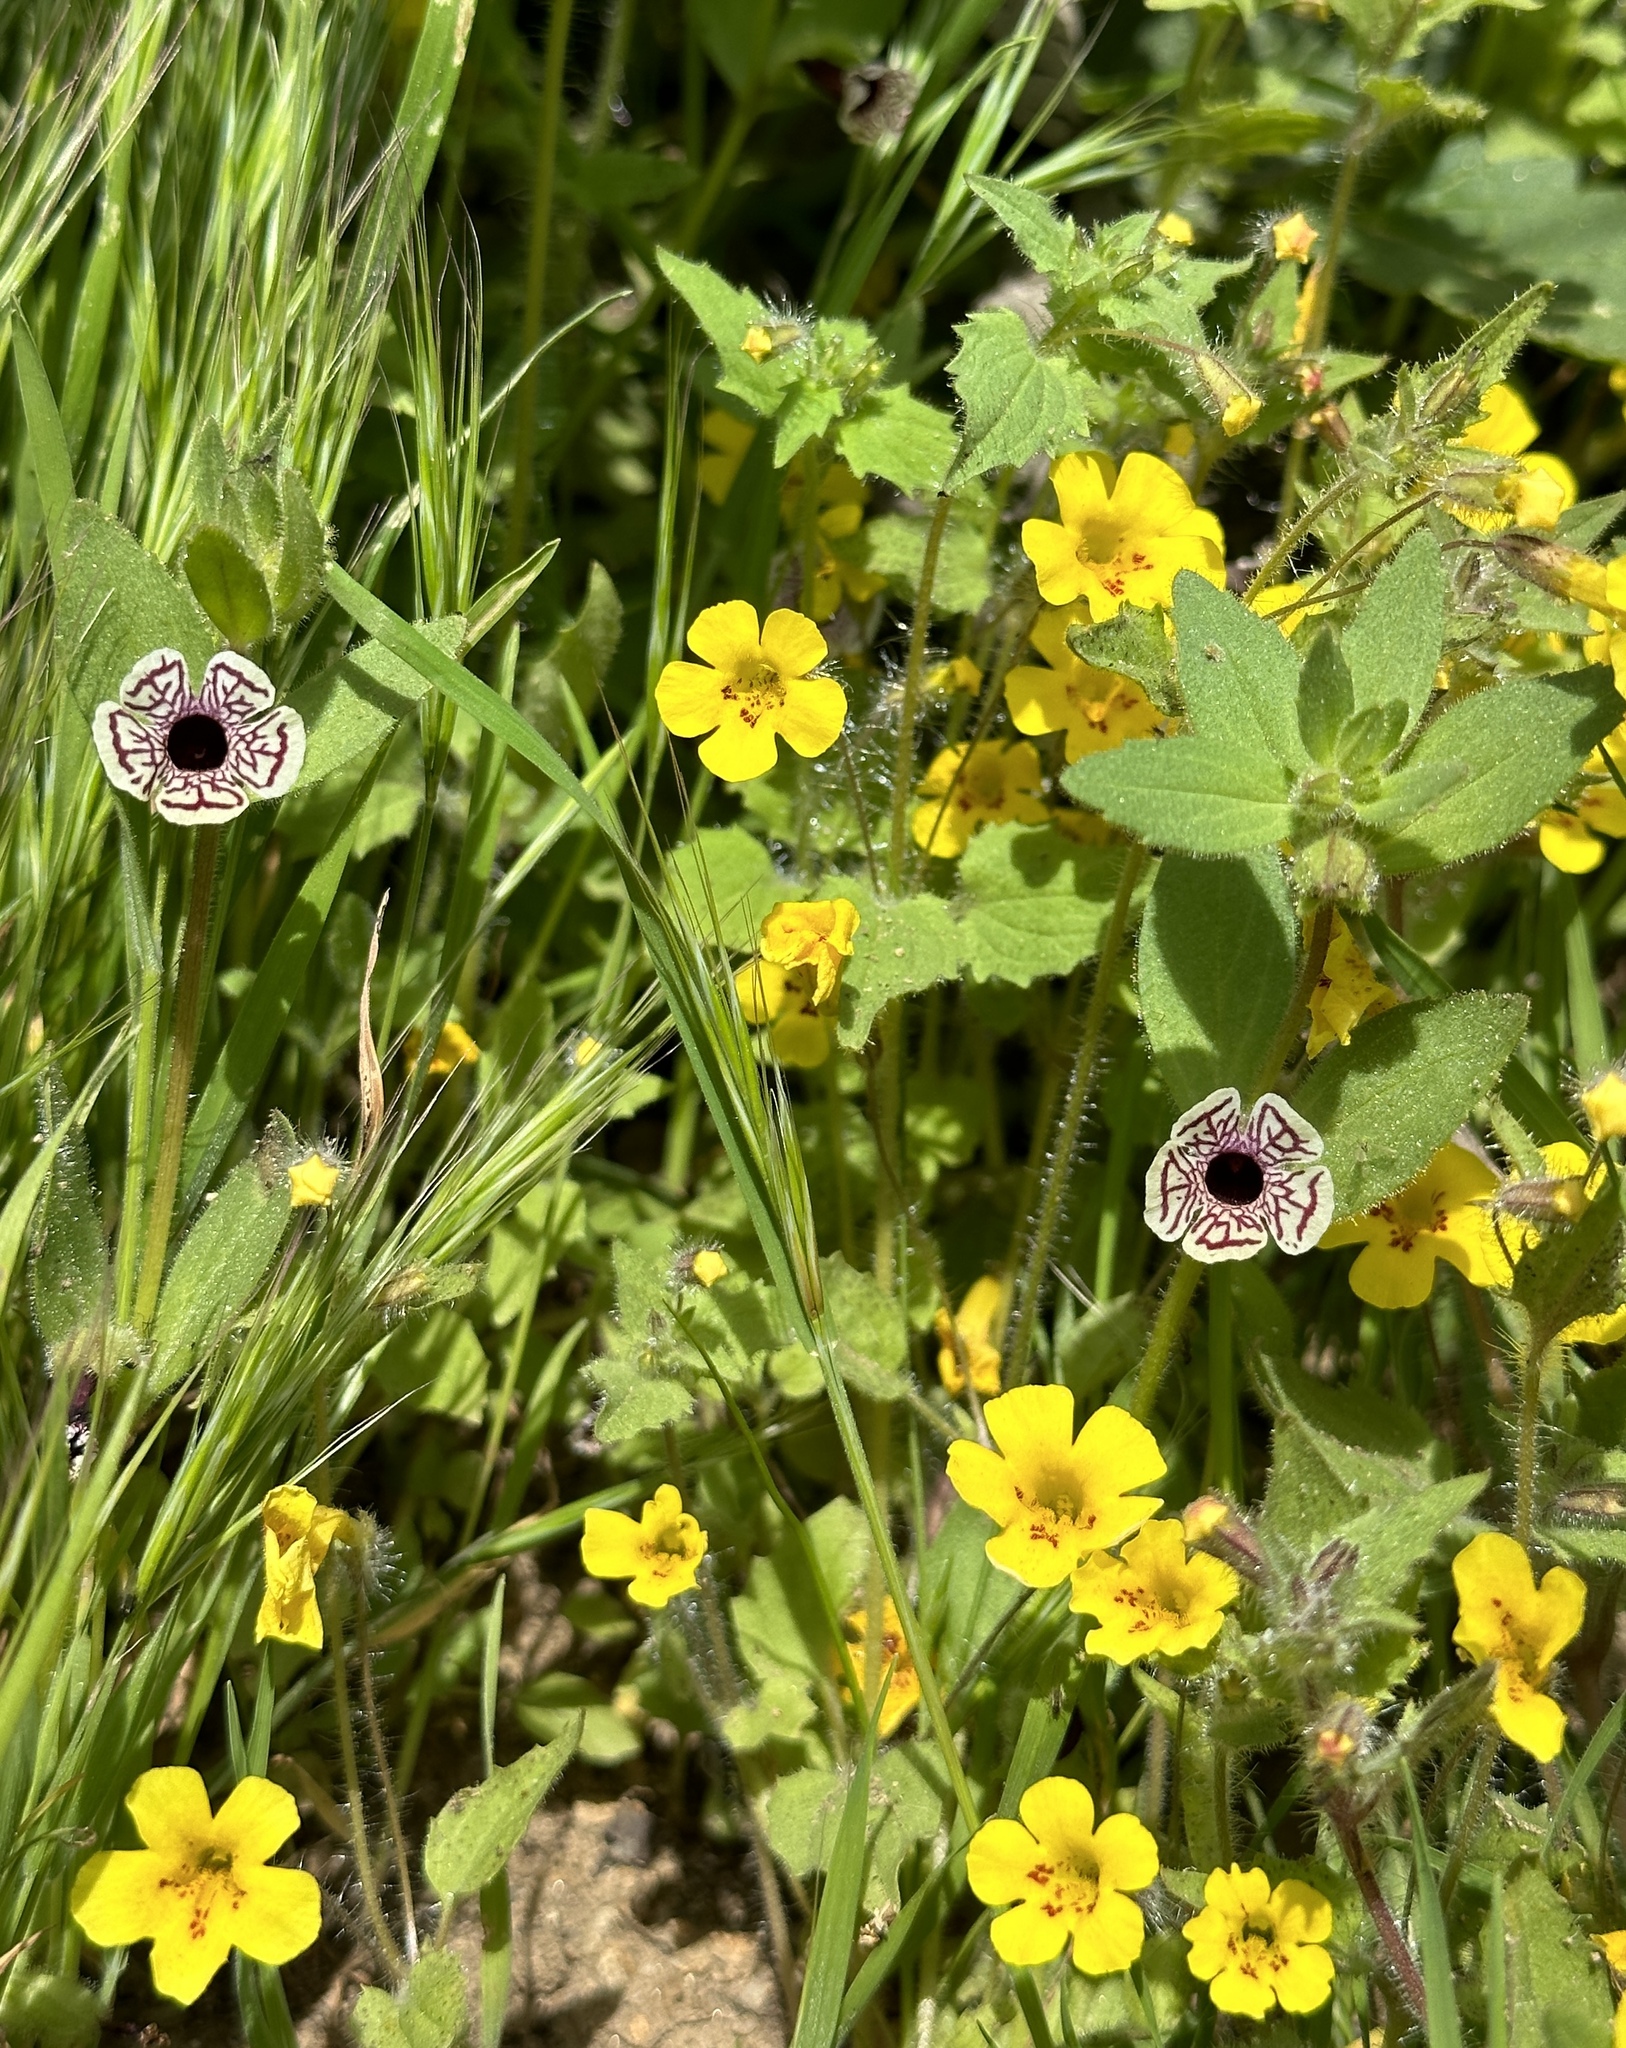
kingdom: Plantae
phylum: Tracheophyta
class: Magnoliopsida
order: Lamiales
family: Phrymaceae
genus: Erythranthe
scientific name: Erythranthe geniculata
